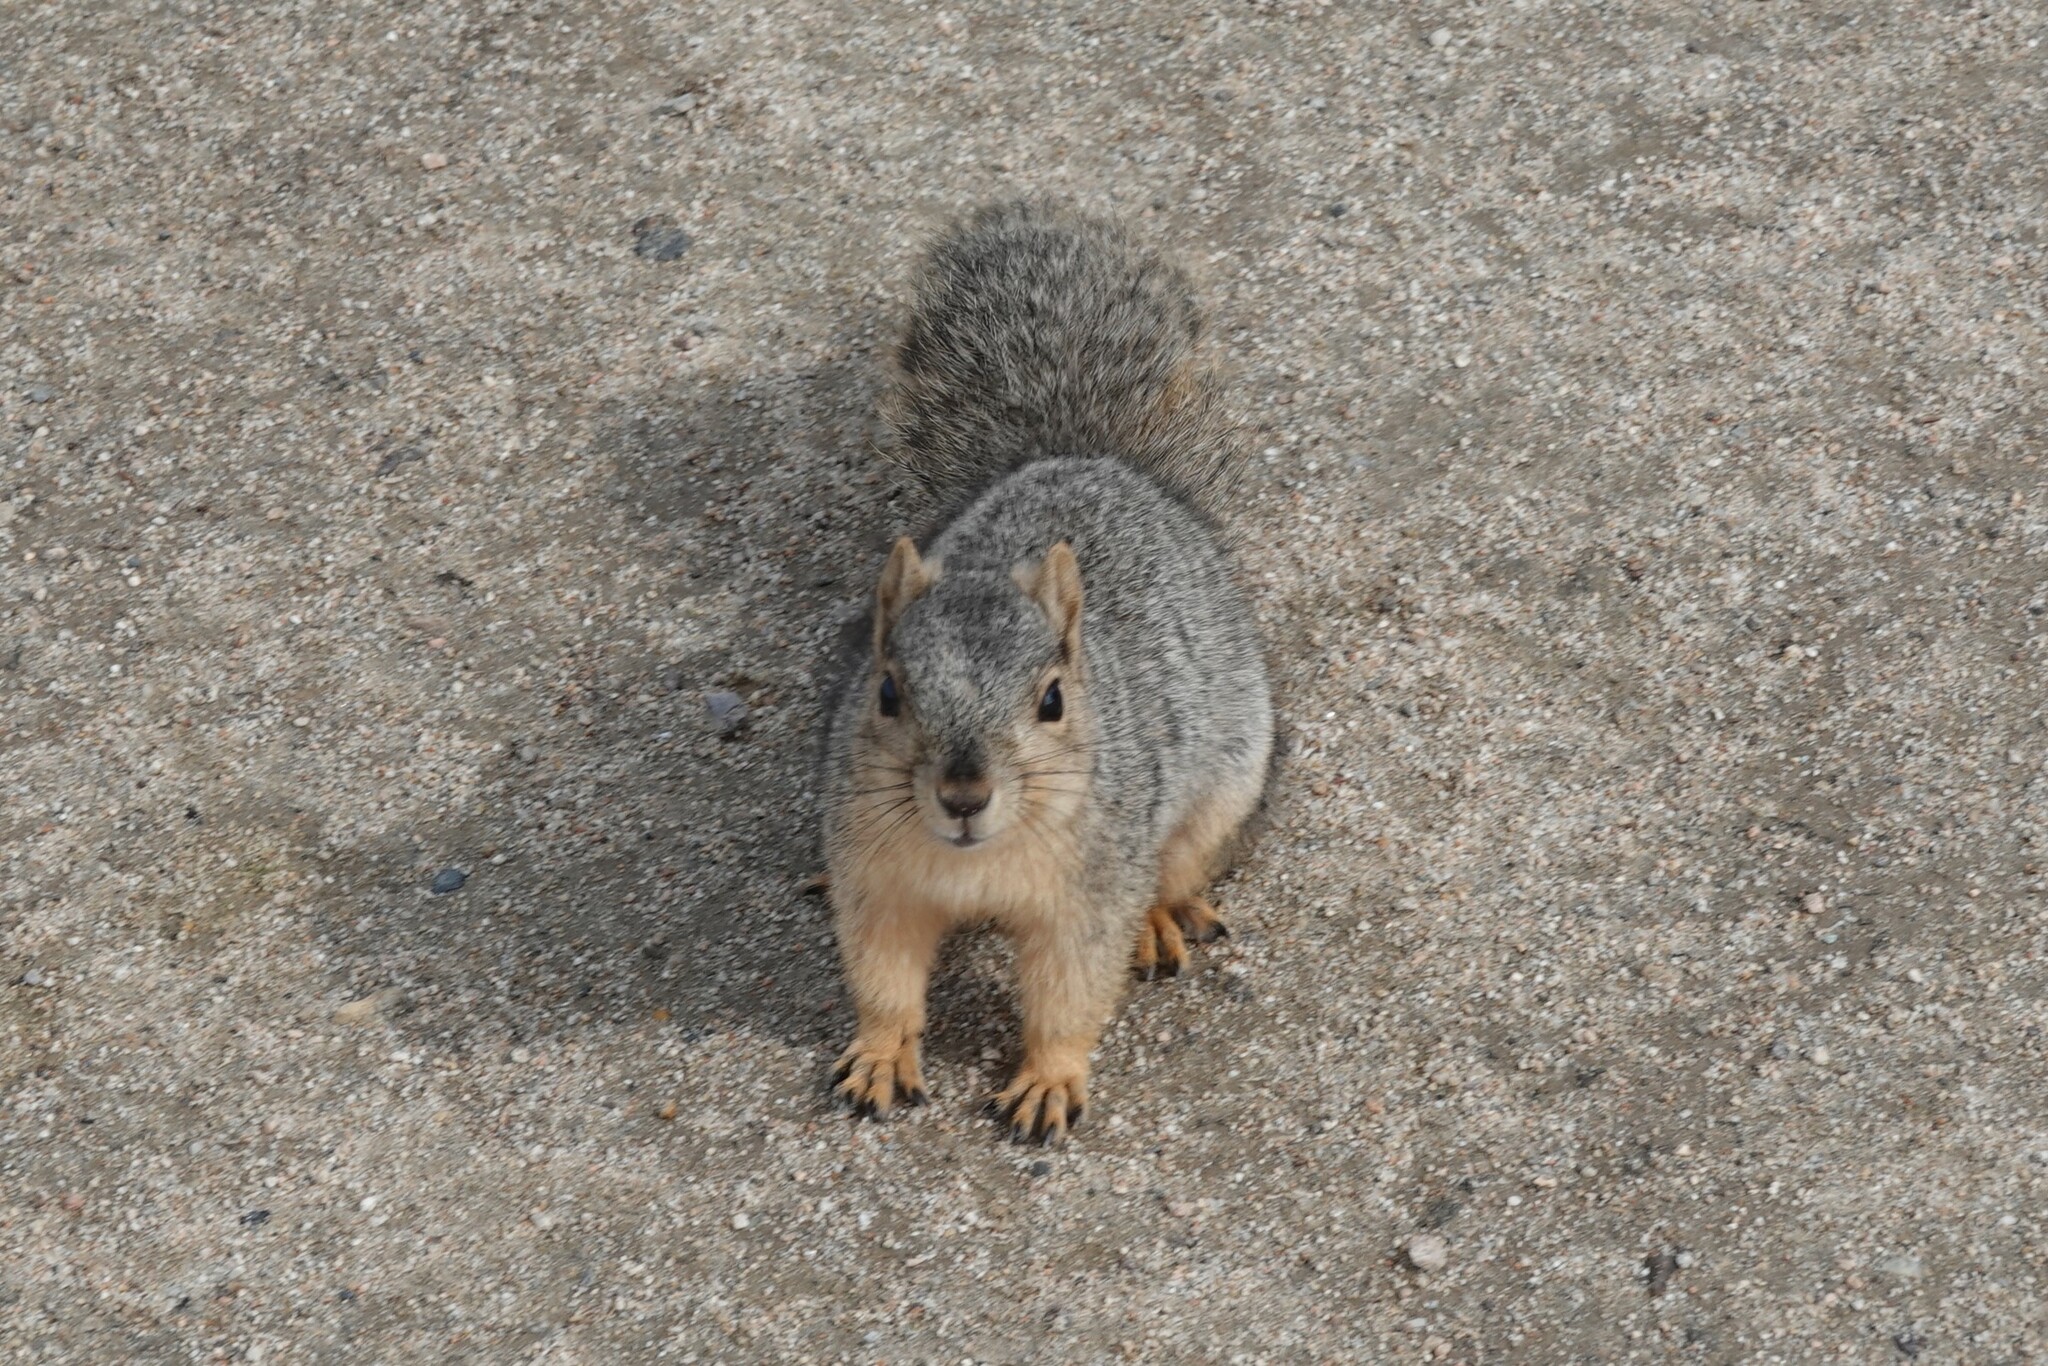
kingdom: Animalia
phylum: Chordata
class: Mammalia
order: Rodentia
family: Sciuridae
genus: Sciurus
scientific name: Sciurus niger
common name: Fox squirrel
